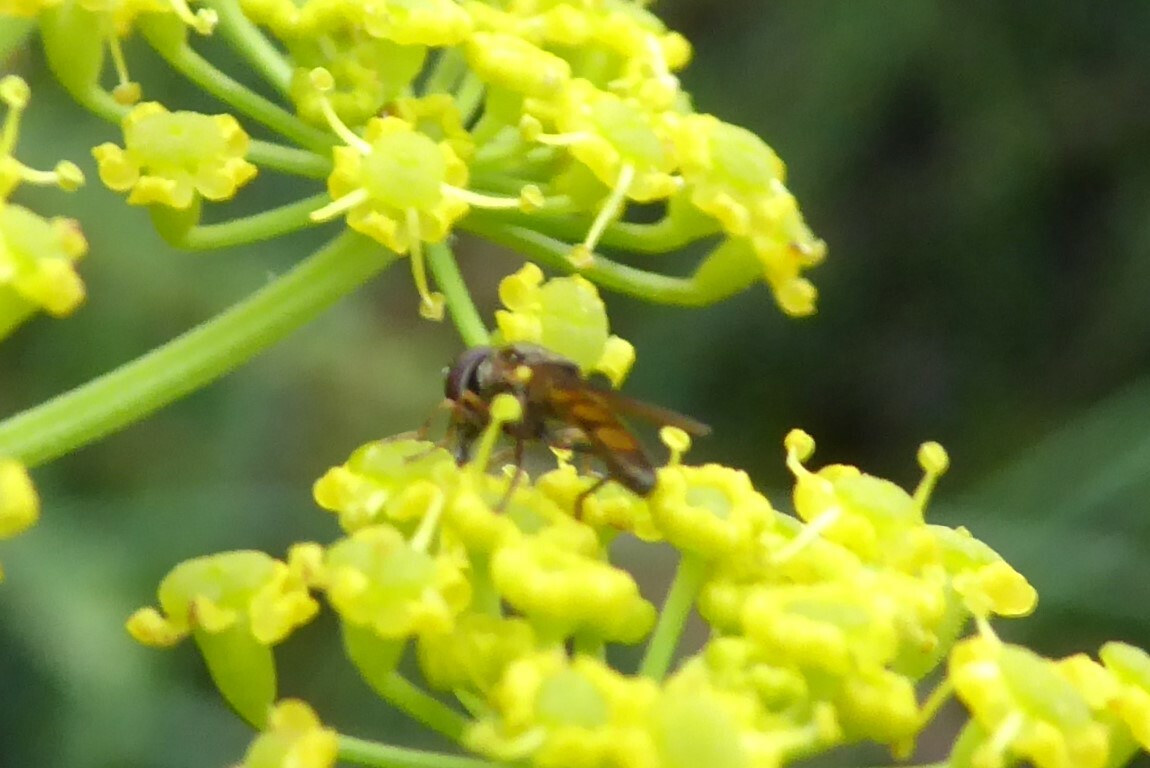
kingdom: Animalia
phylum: Arthropoda
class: Insecta
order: Diptera
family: Syrphidae
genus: Melanostoma
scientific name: Melanostoma fasciatum
